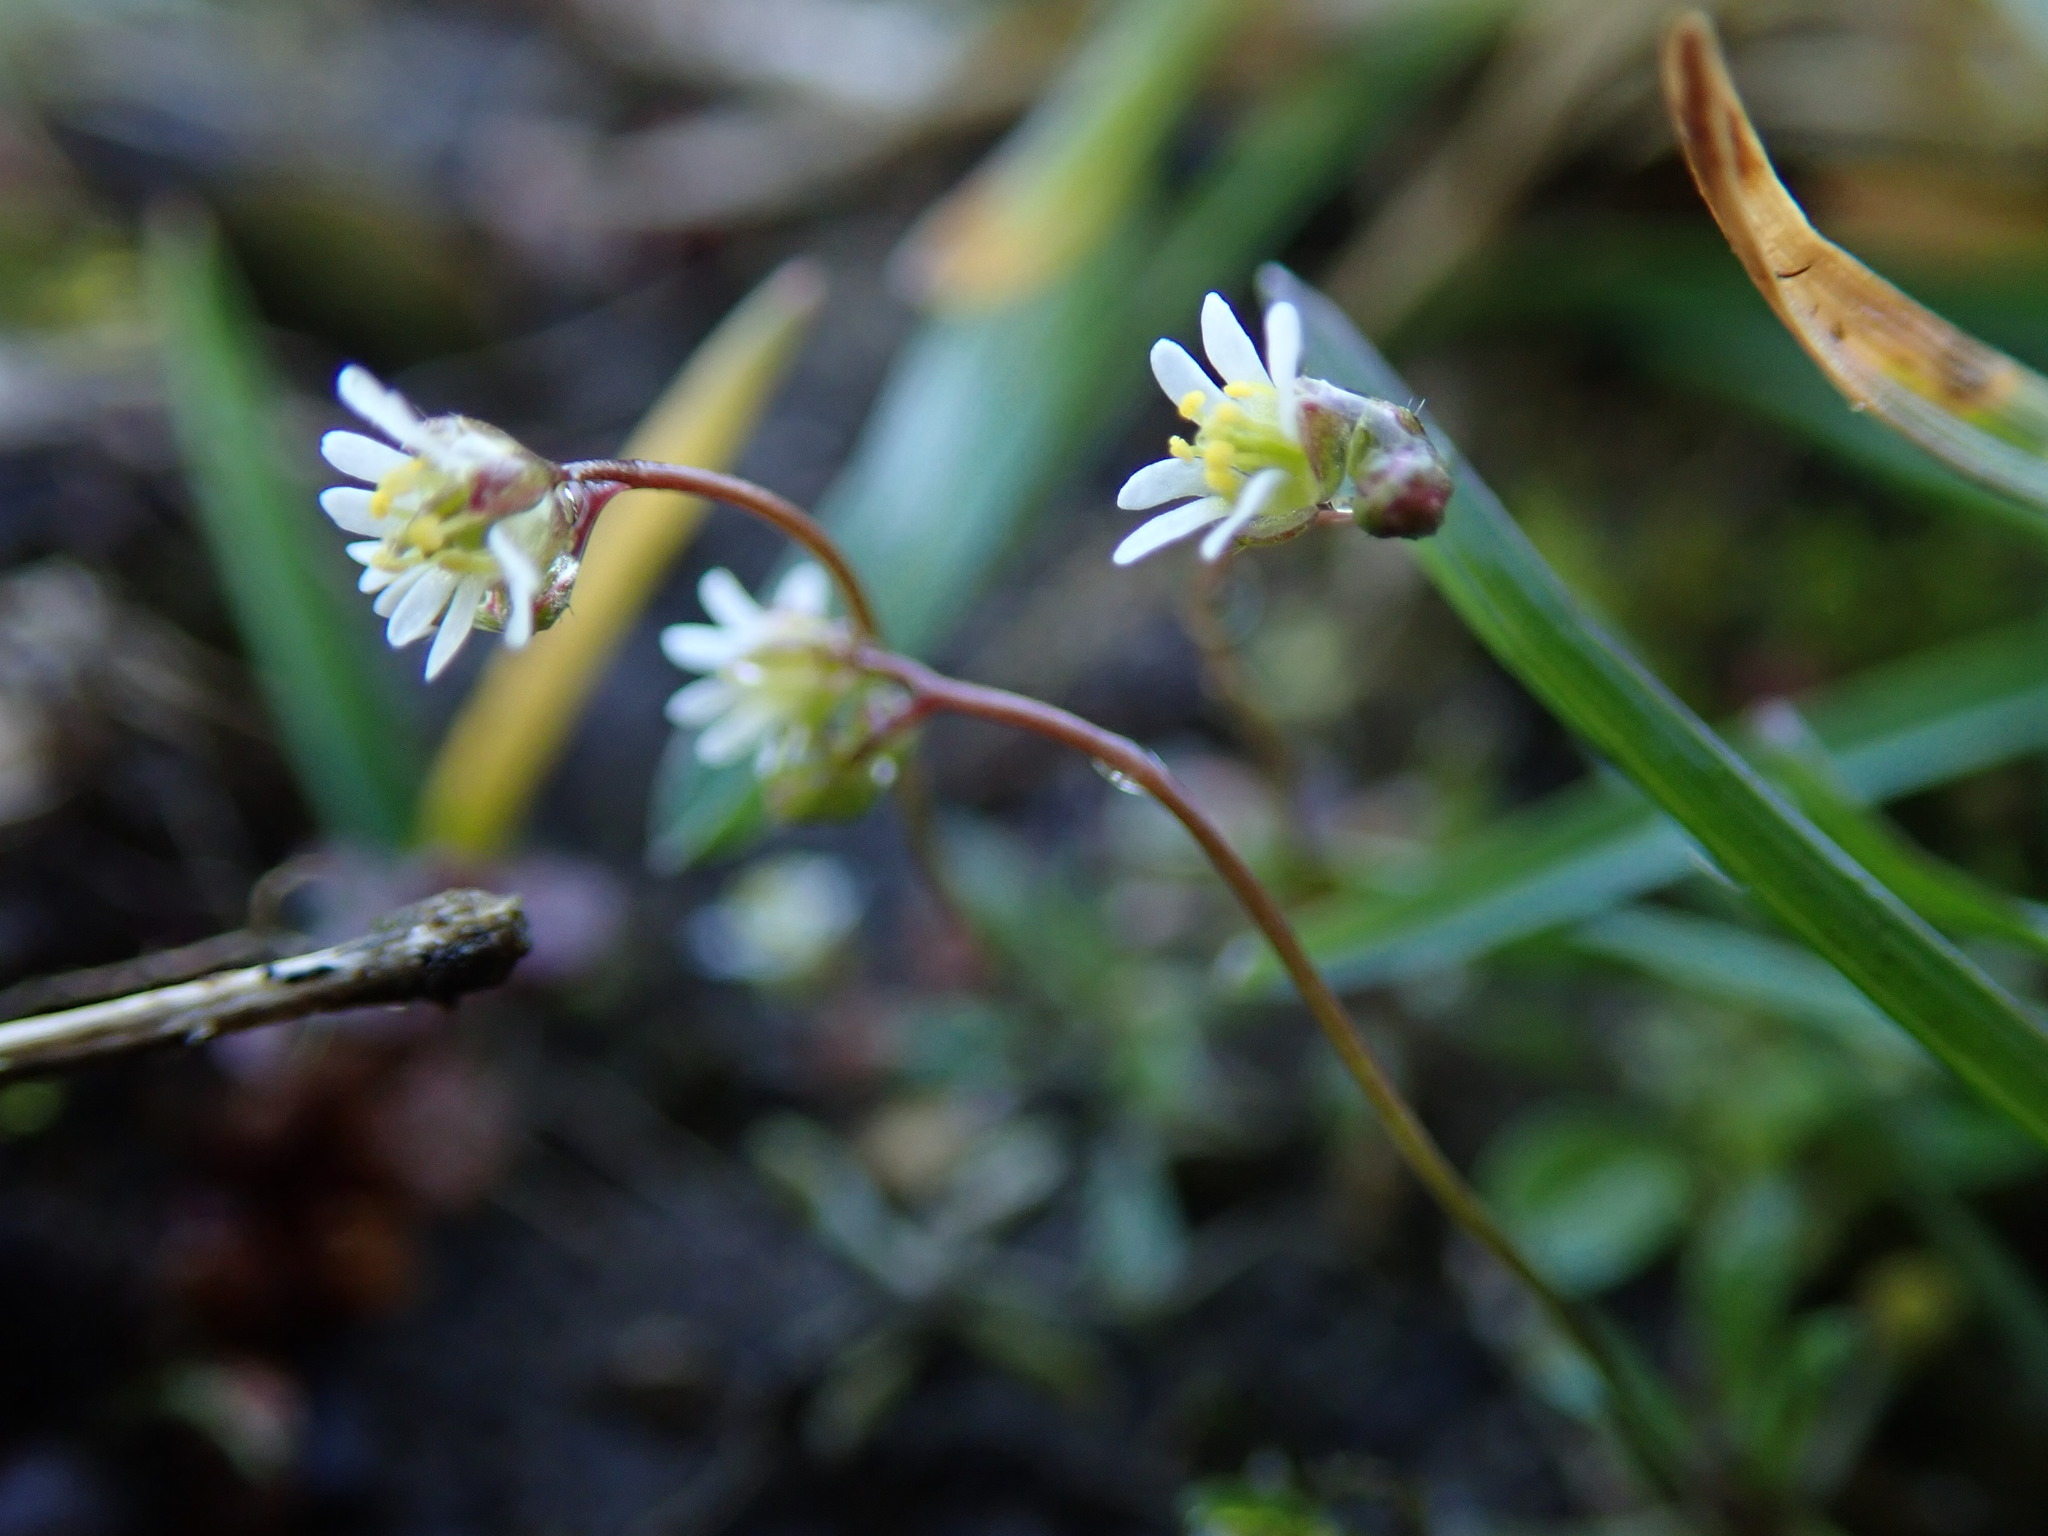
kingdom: Plantae
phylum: Tracheophyta
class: Magnoliopsida
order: Brassicales
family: Brassicaceae
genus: Draba
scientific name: Draba verna
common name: Spring draba
